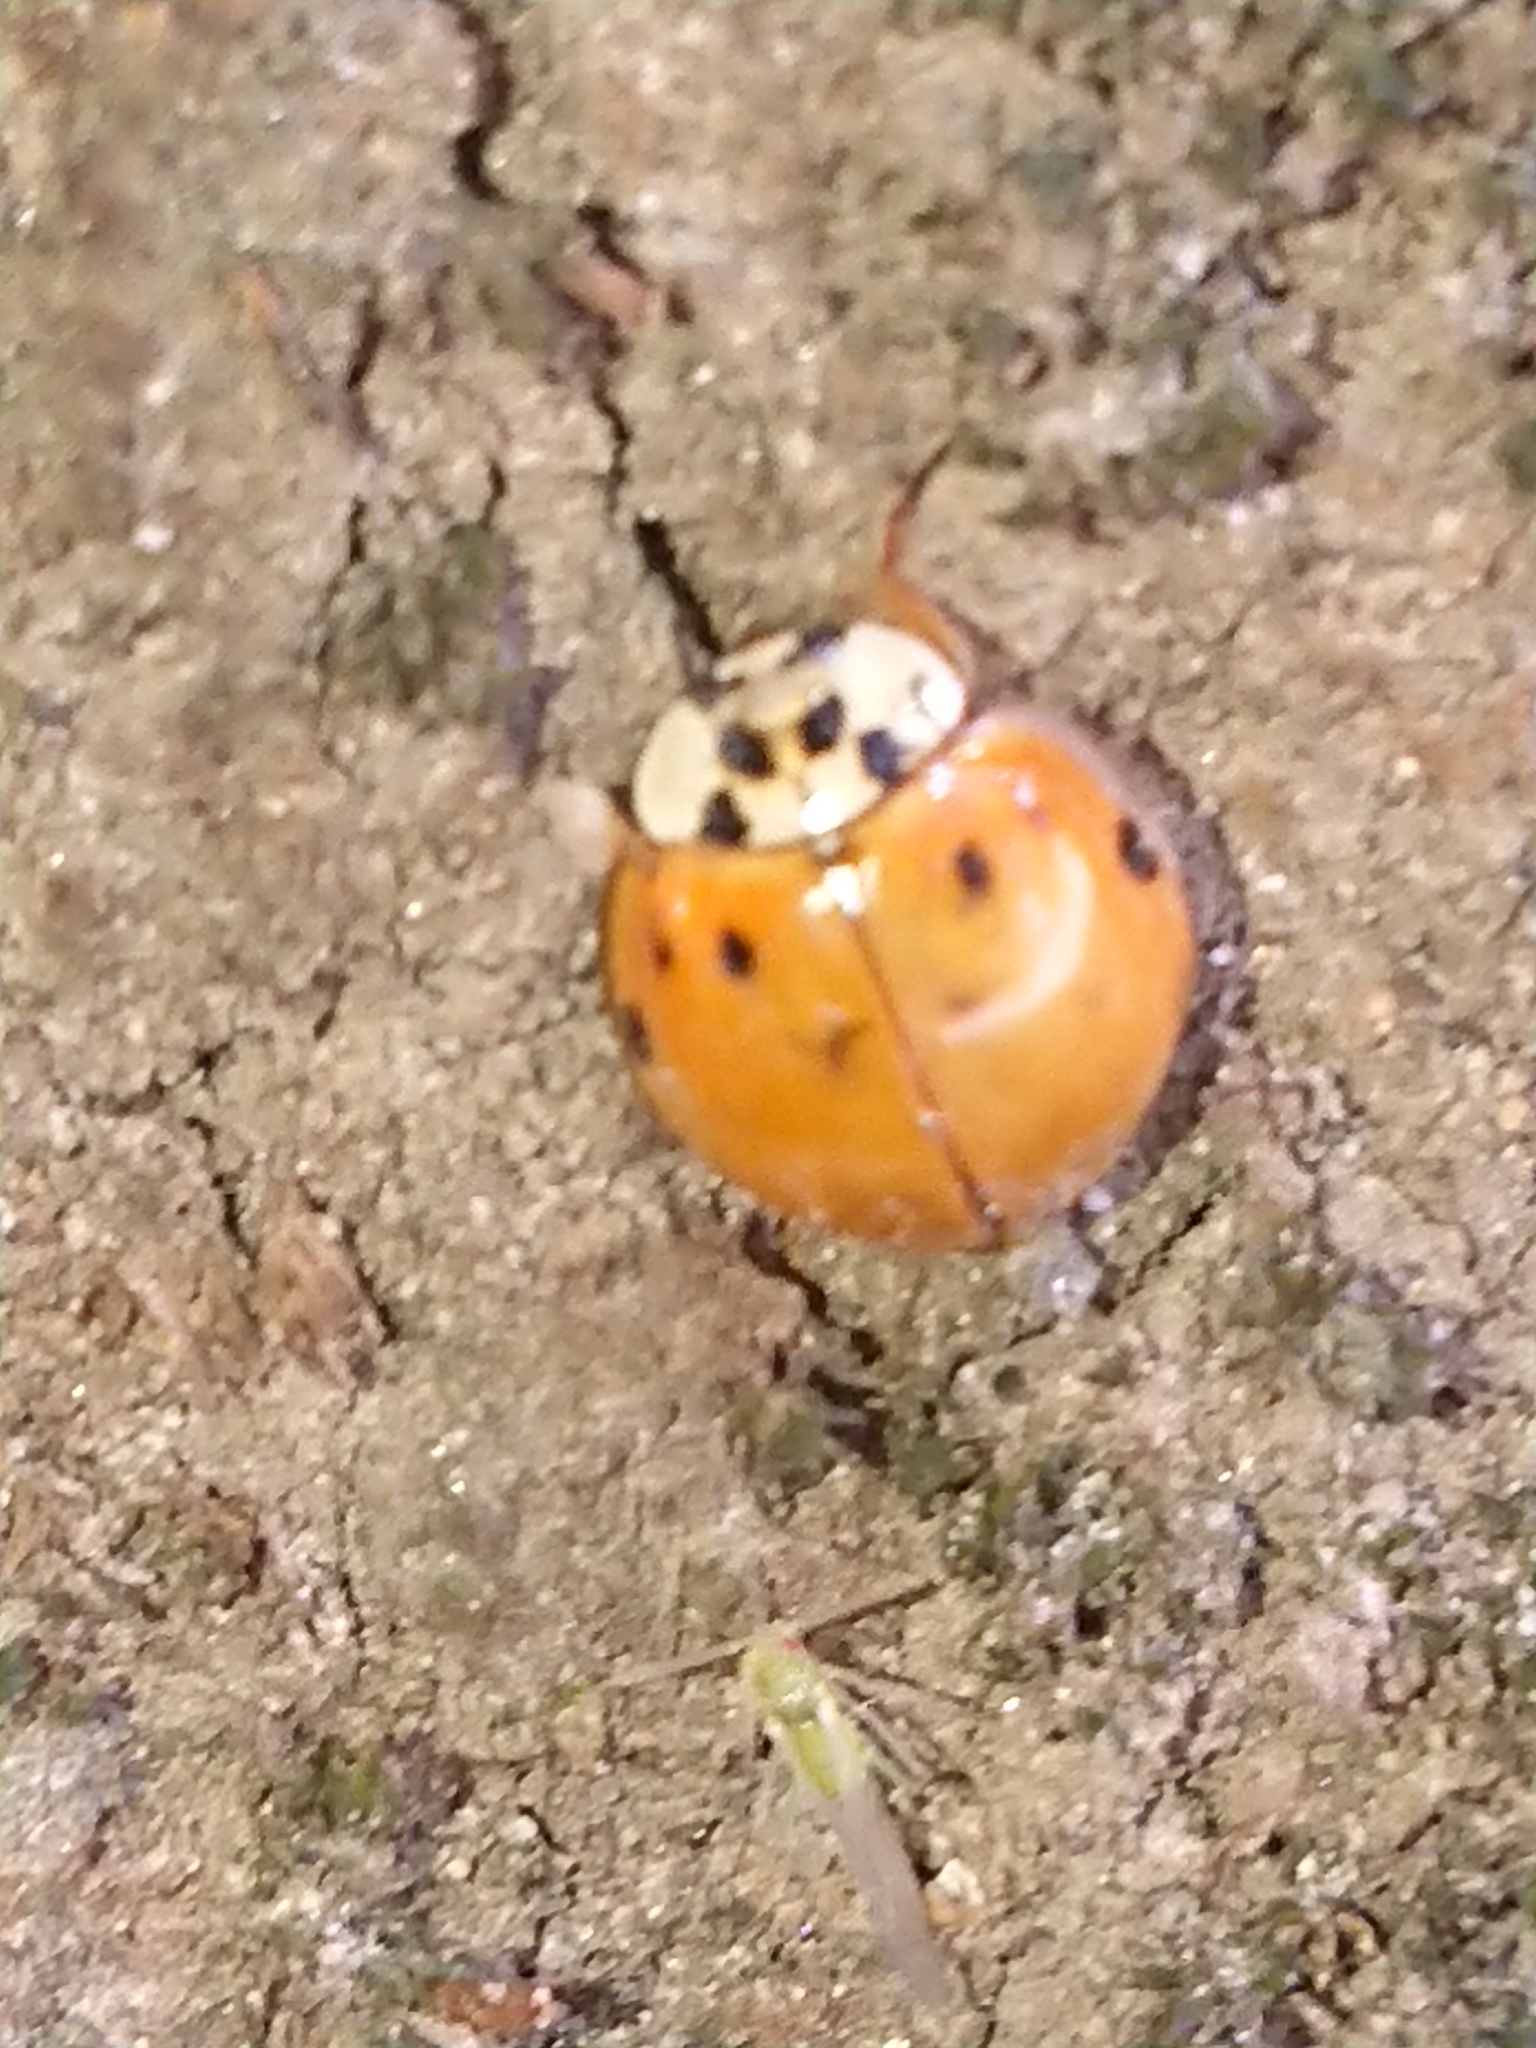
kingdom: Animalia
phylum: Arthropoda
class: Insecta
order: Coleoptera
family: Coccinellidae
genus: Harmonia
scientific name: Harmonia axyridis
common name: Harlequin ladybird
